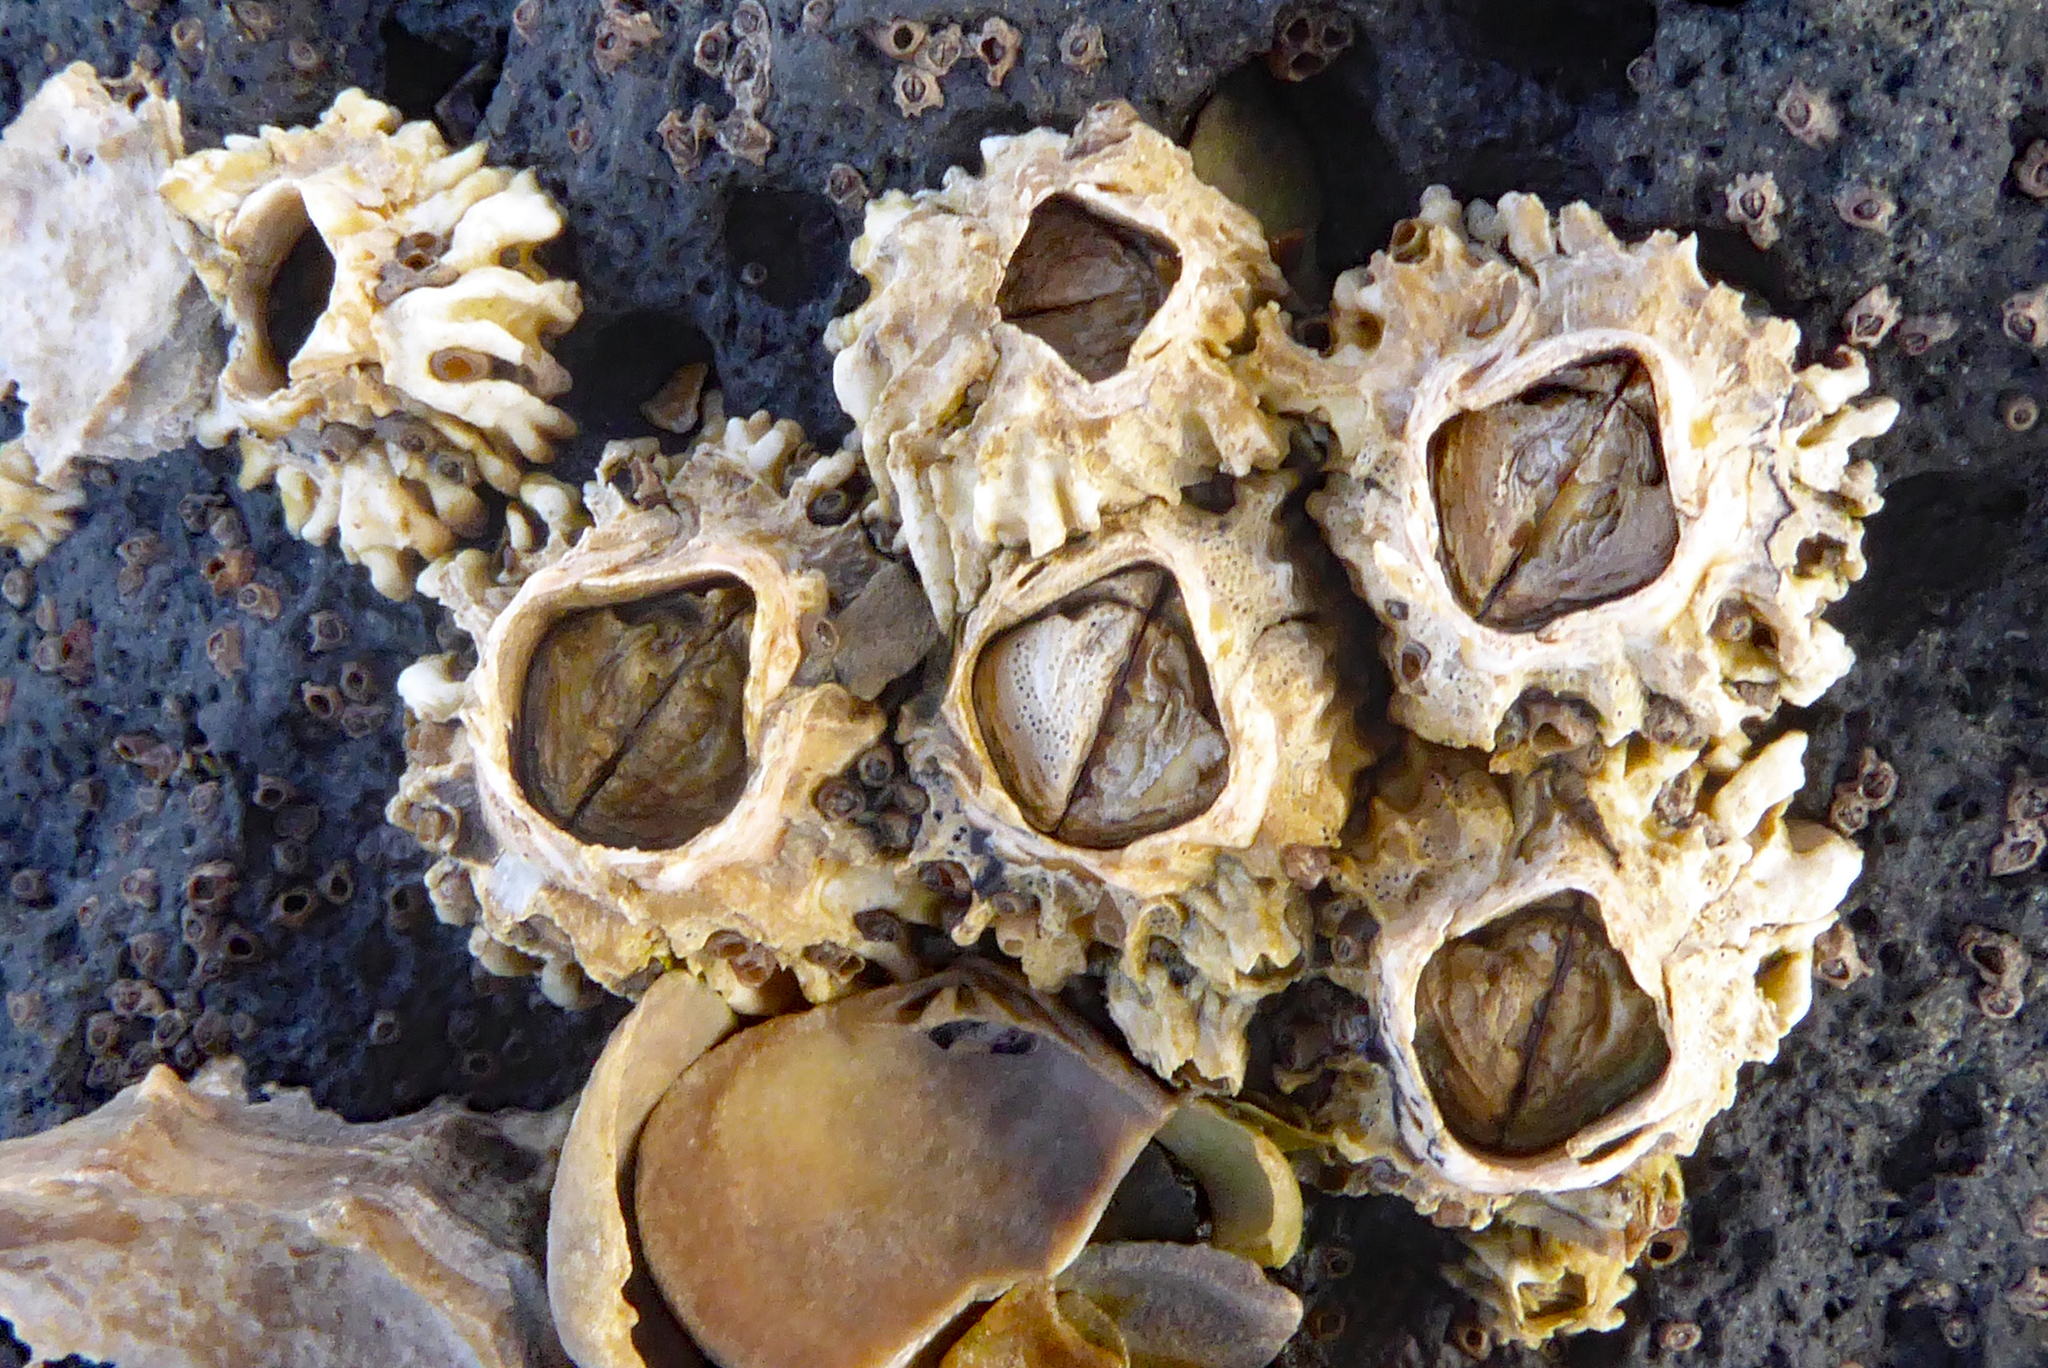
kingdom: Animalia
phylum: Arthropoda
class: Maxillopoda
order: Sessilia
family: Tetraclitidae
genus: Epopella
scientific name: Epopella plicata
